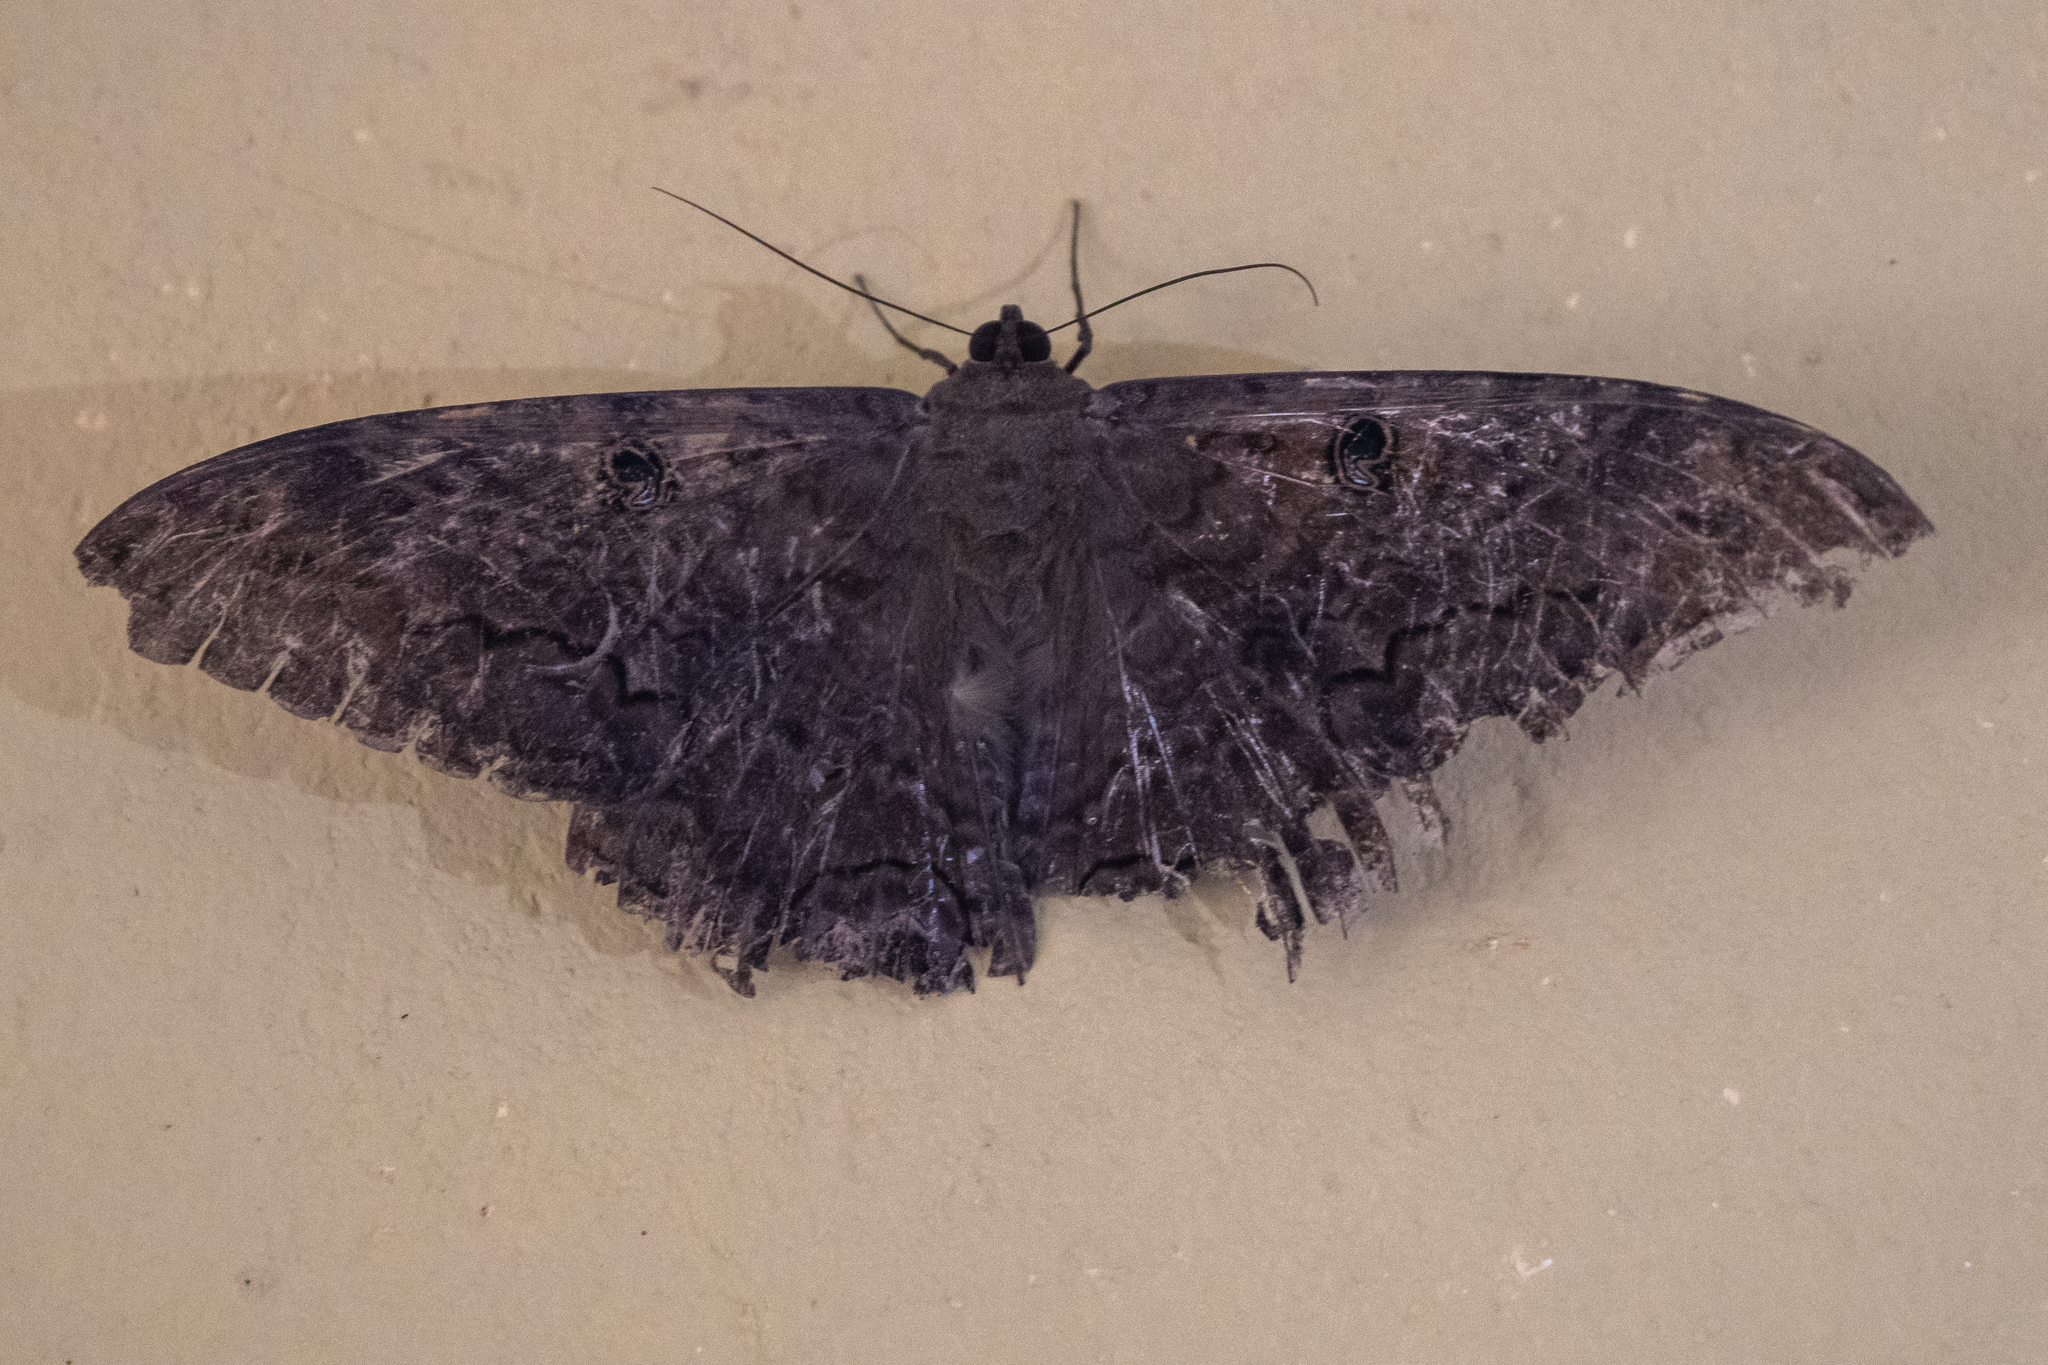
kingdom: Animalia
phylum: Arthropoda
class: Insecta
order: Lepidoptera
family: Erebidae
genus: Ascalapha
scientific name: Ascalapha odorata
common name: Black witch
